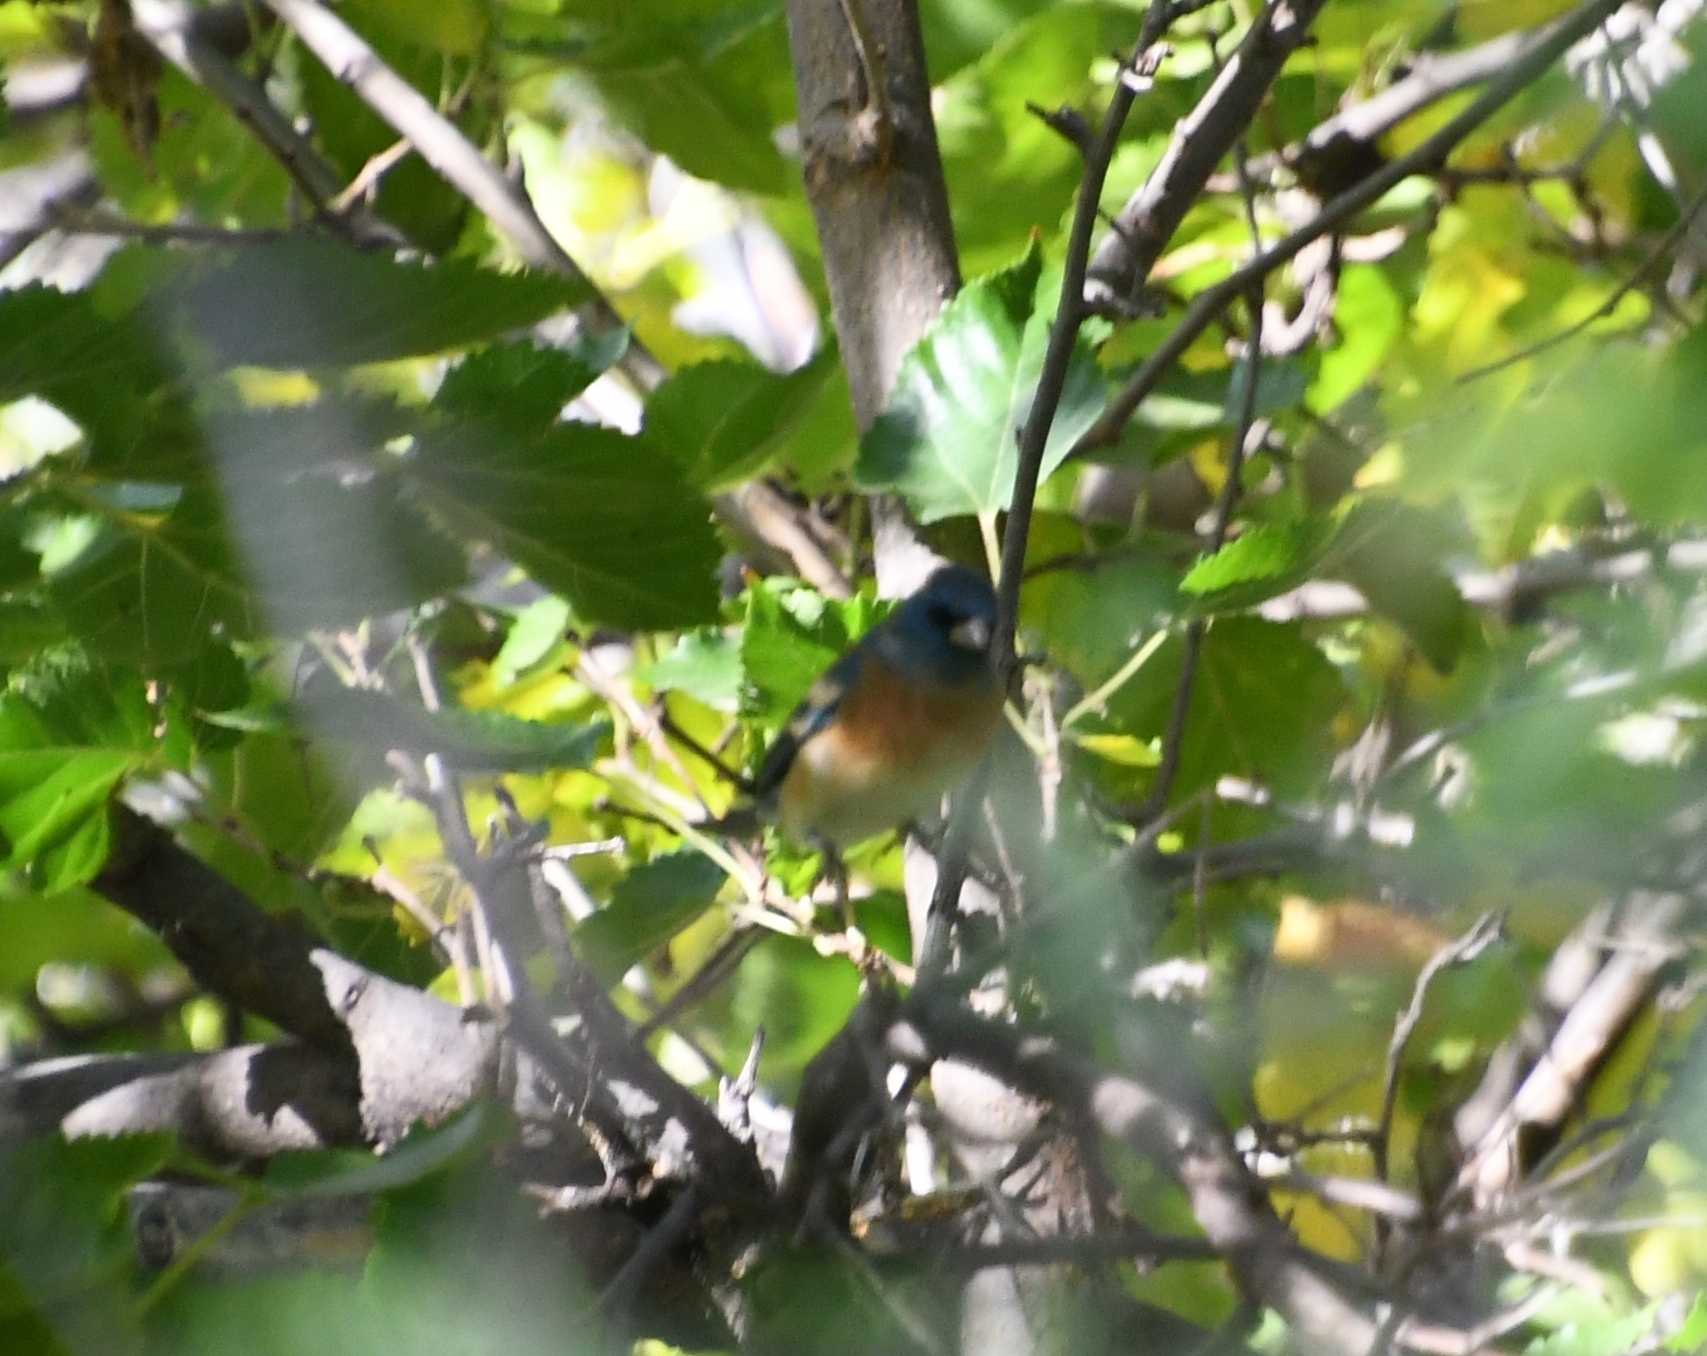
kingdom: Animalia
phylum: Chordata
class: Aves
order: Passeriformes
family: Cardinalidae
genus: Passerina
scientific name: Passerina amoena
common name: Lazuli bunting
